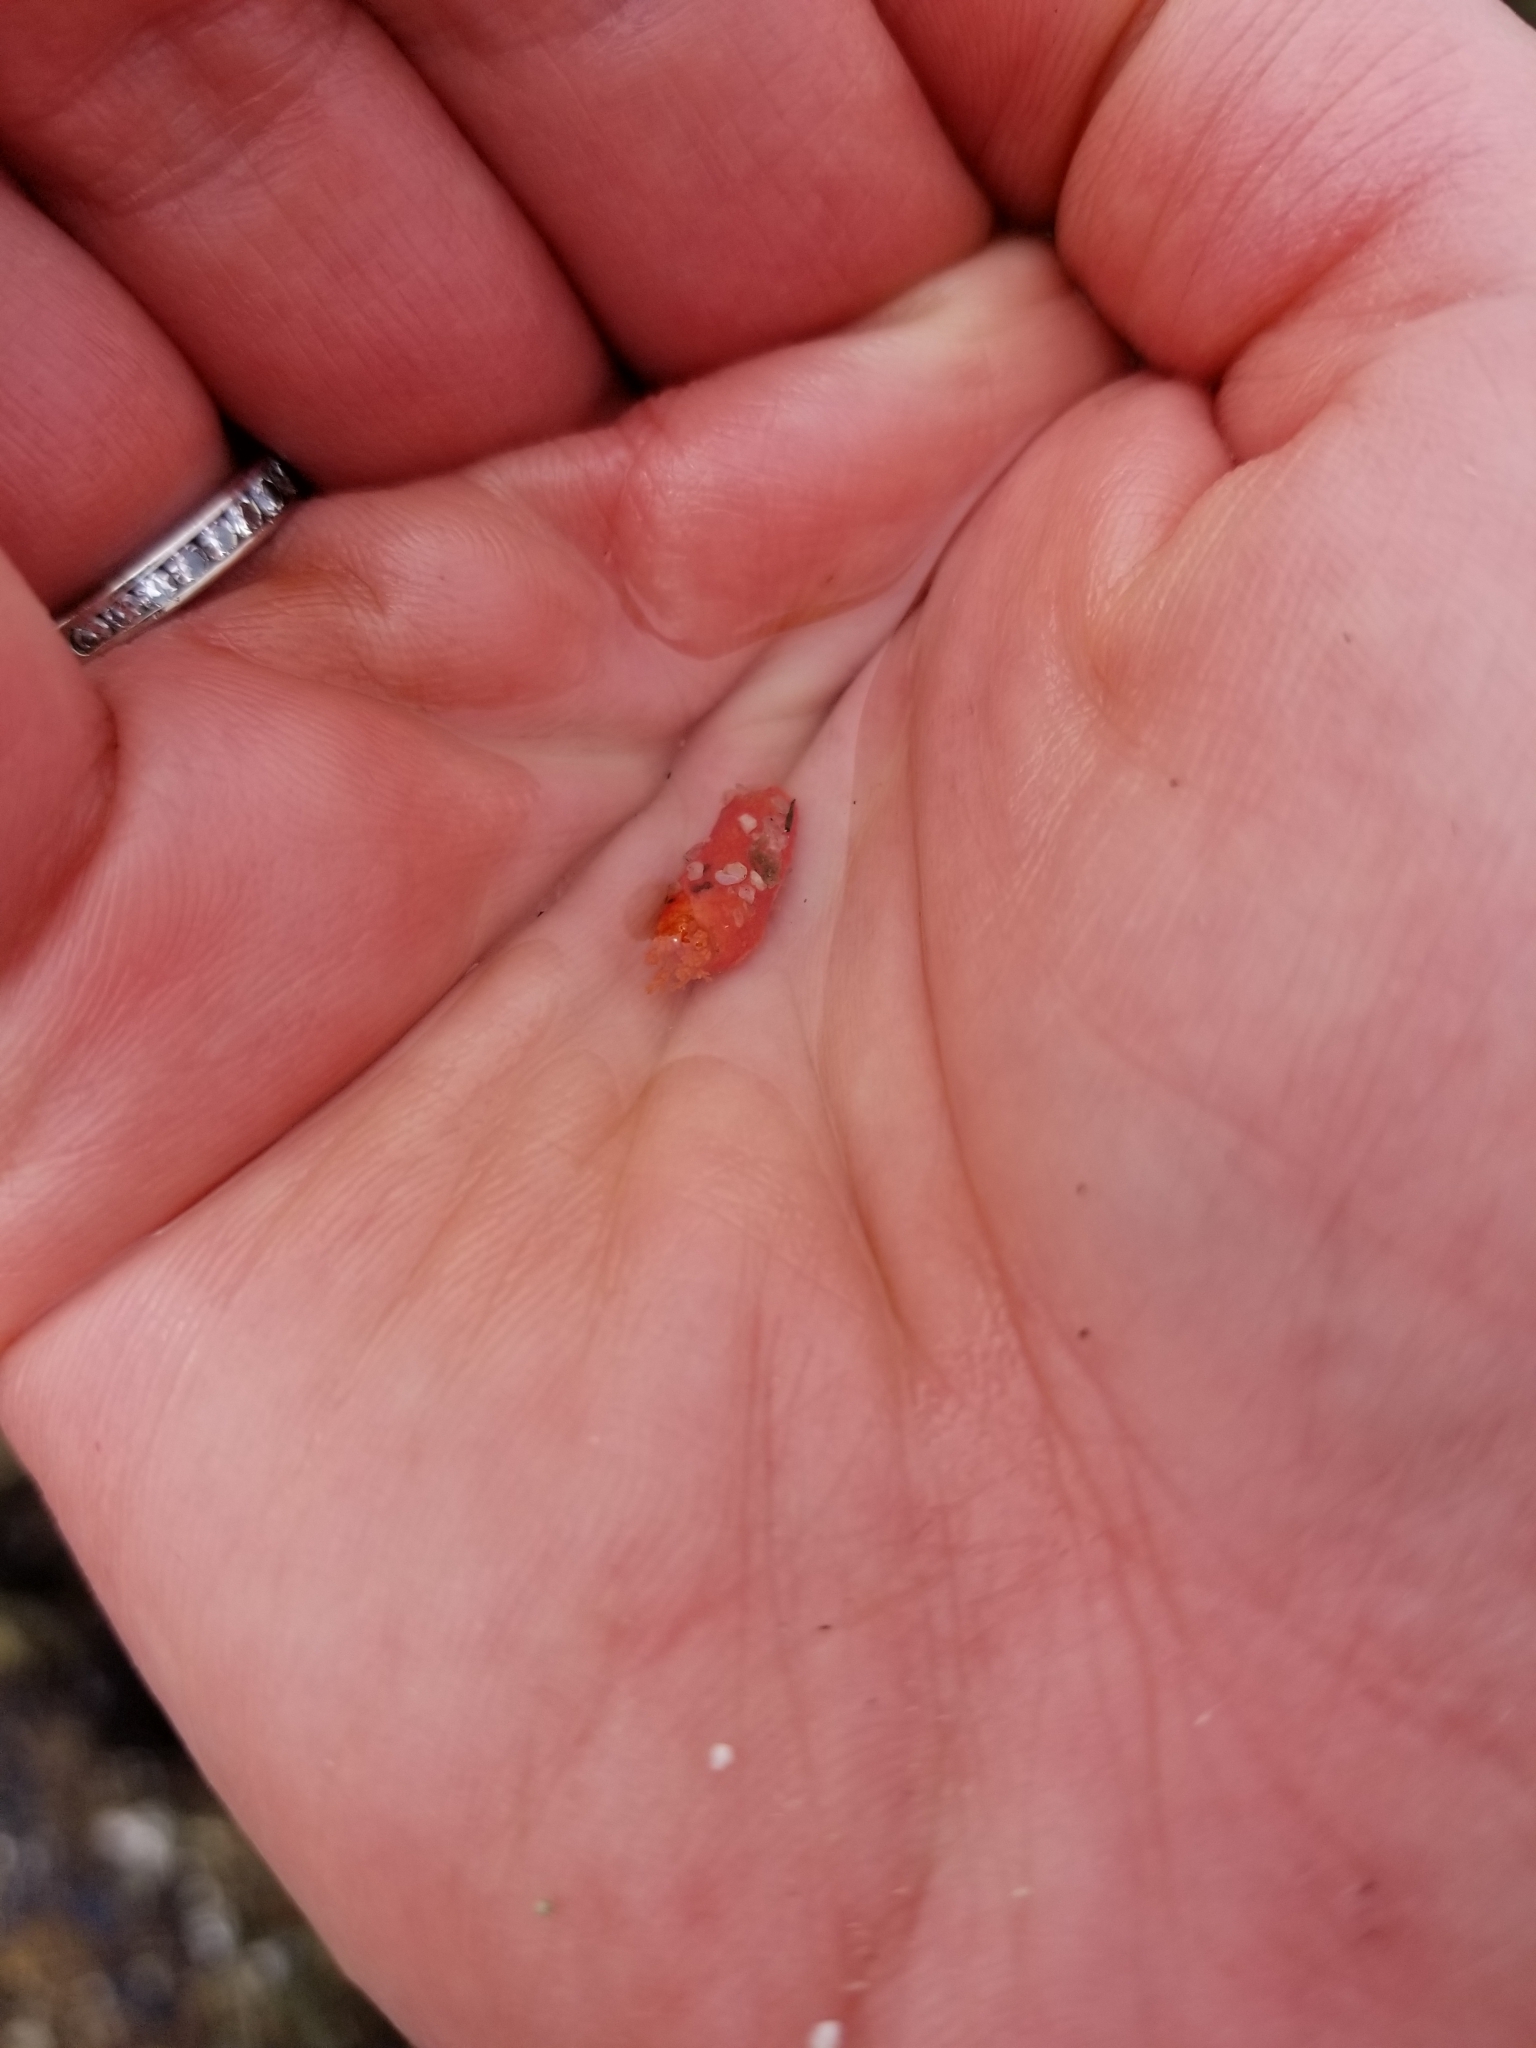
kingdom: Animalia
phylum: Echinodermata
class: Holothuroidea
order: Dendrochirotida
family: Psolidae
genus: Lissothuria
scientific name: Lissothuria nutriens
